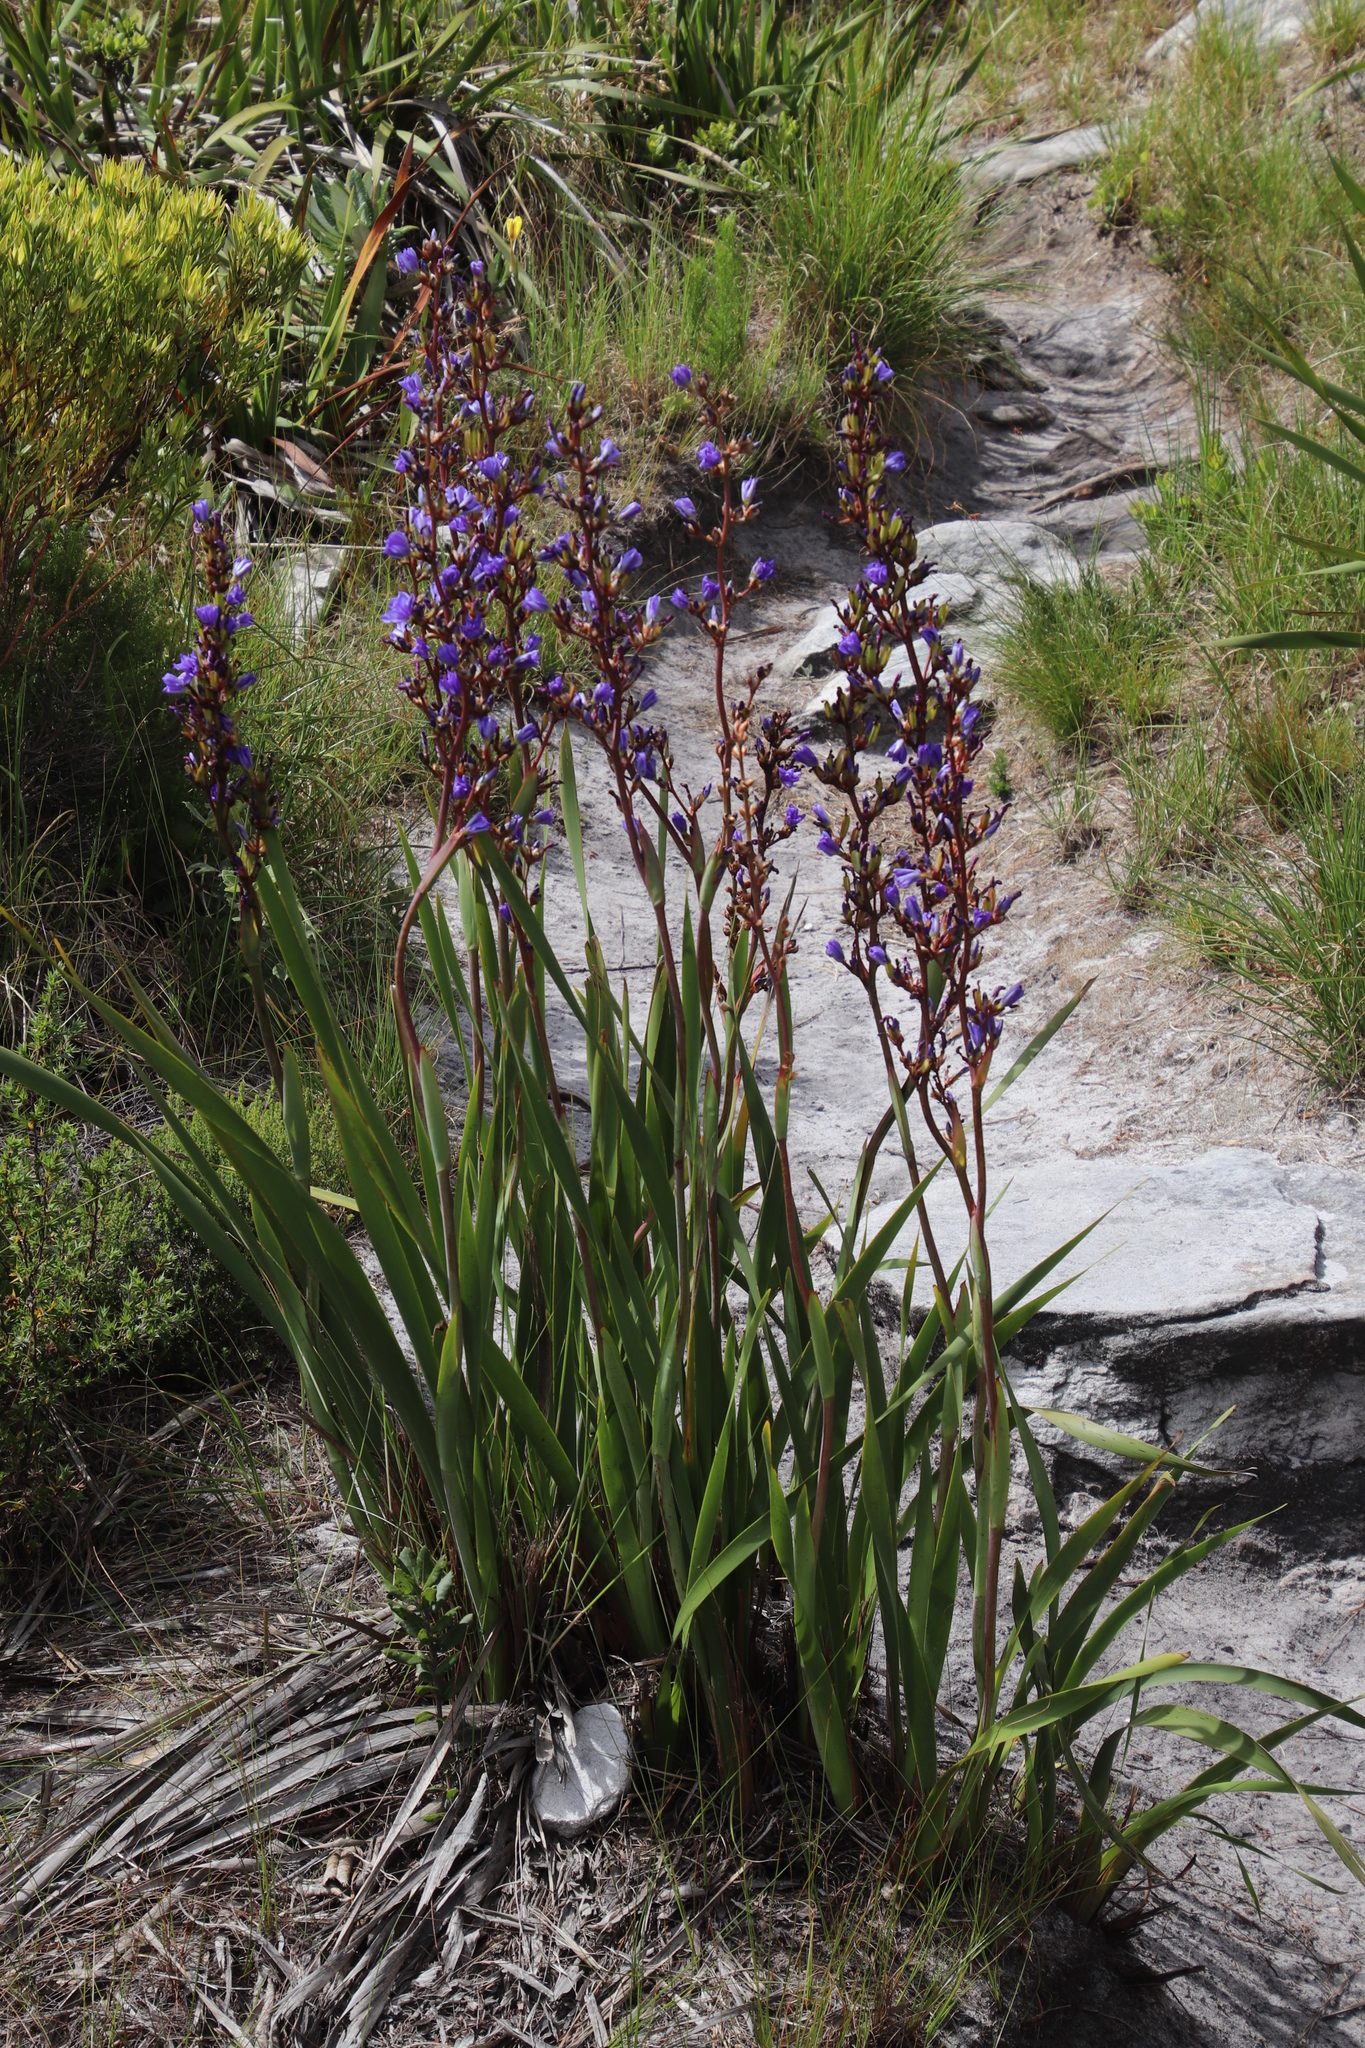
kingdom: Plantae
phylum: Tracheophyta
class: Liliopsida
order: Asparagales
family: Iridaceae
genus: Aristea
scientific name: Aristea bakeri
